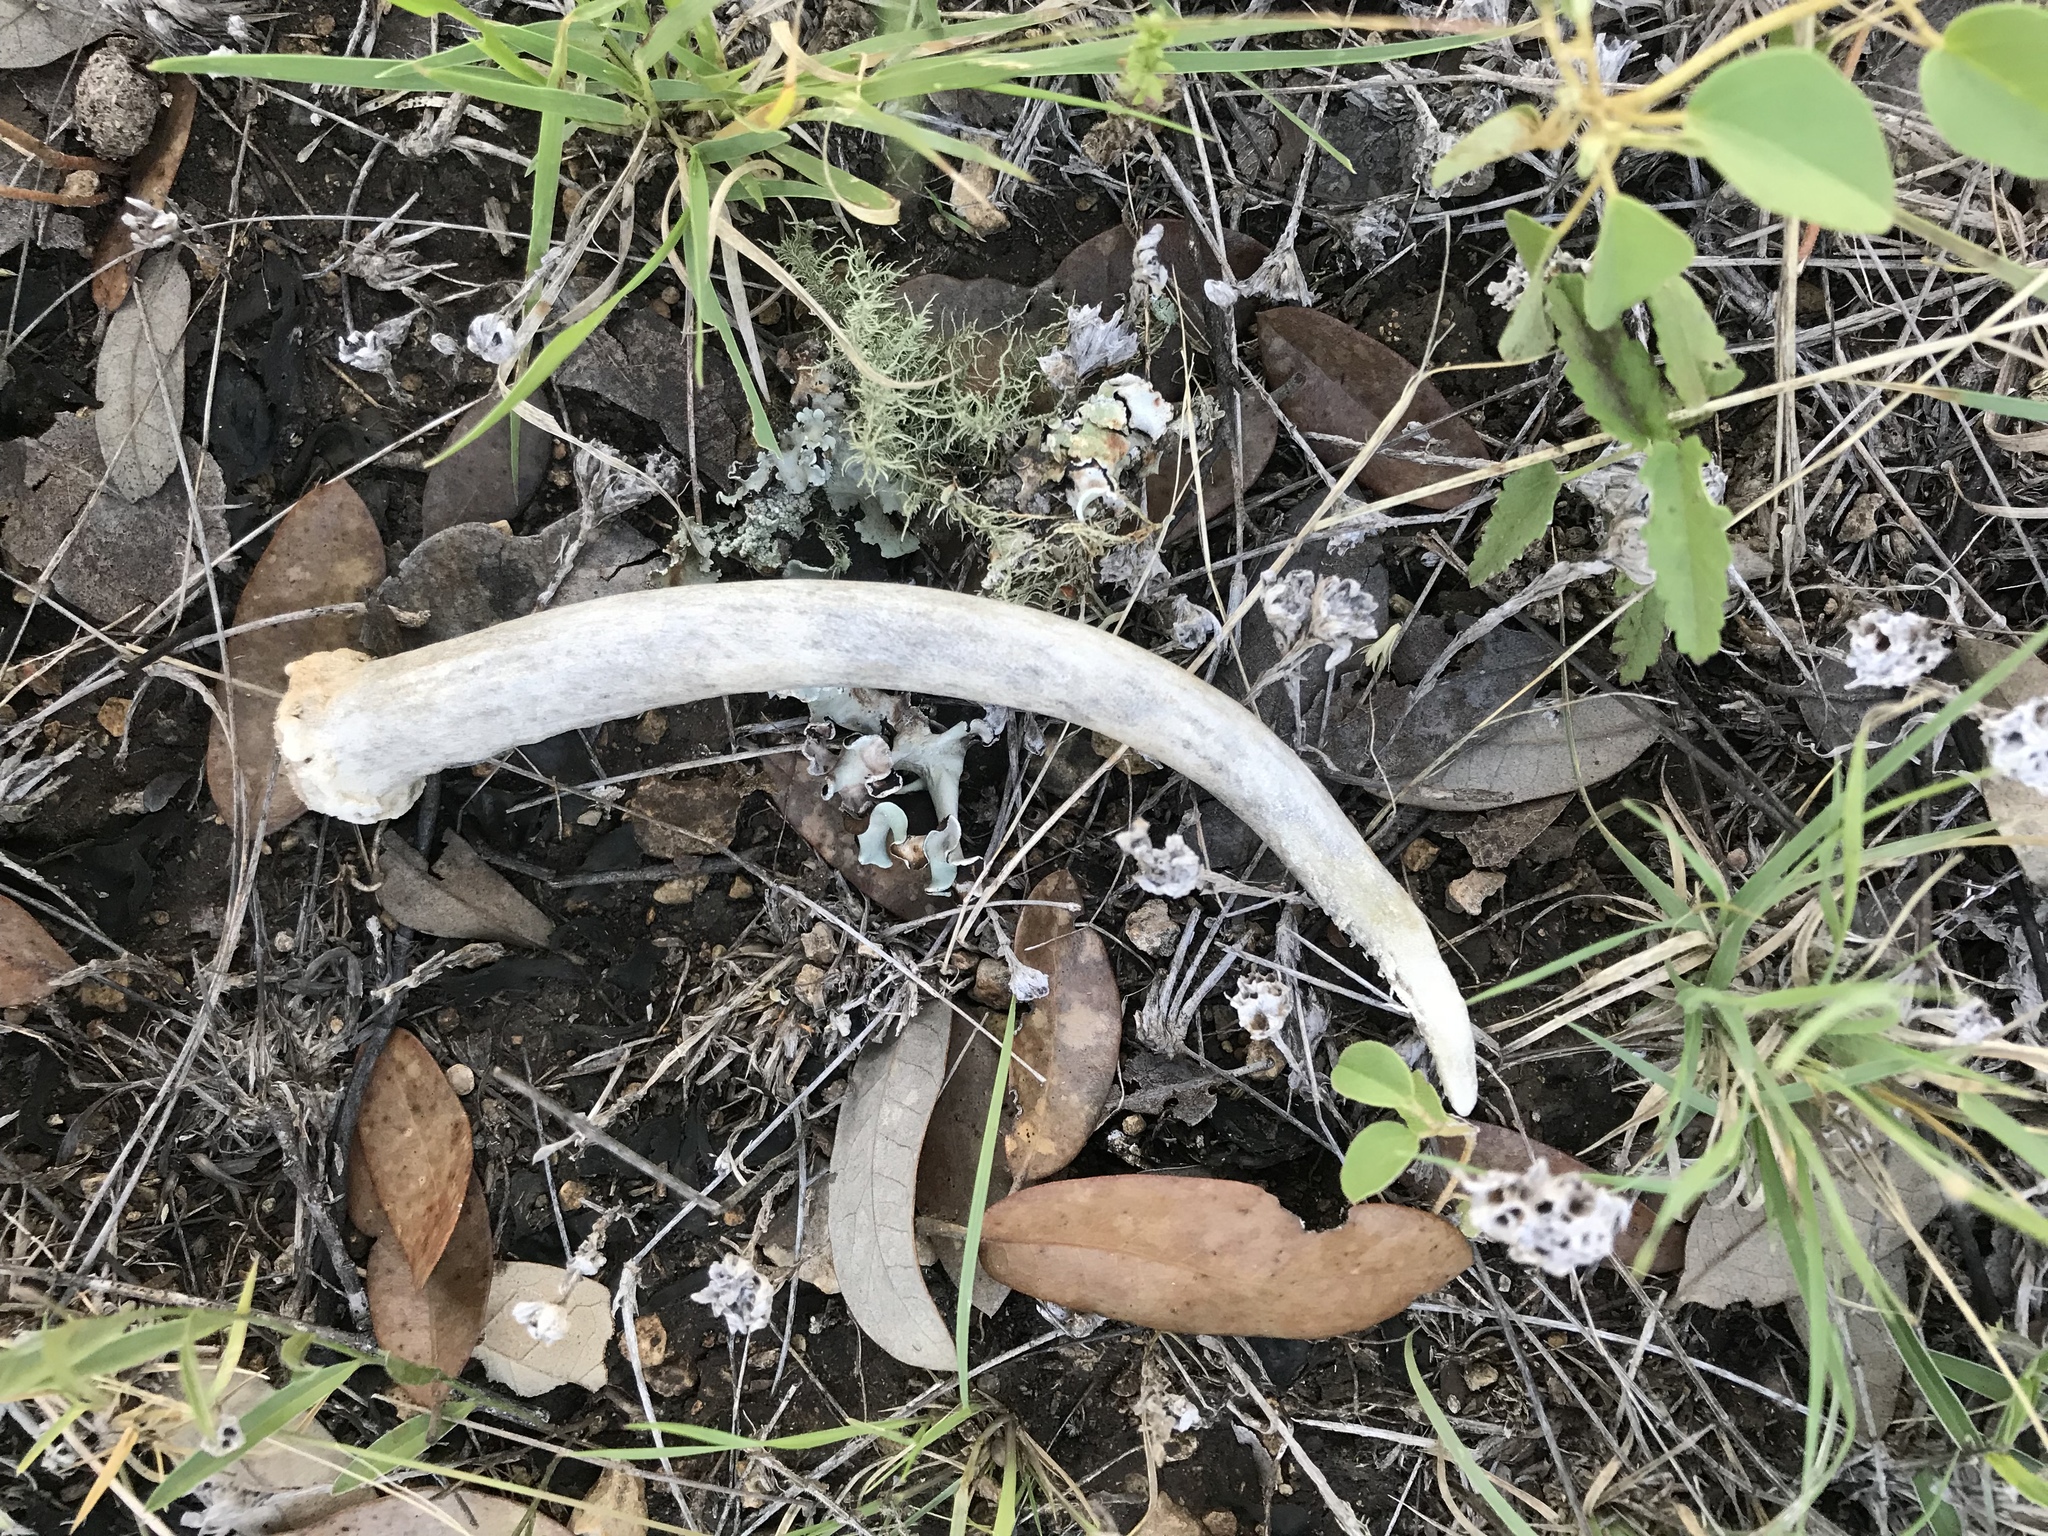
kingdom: Animalia
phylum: Chordata
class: Mammalia
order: Artiodactyla
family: Cervidae
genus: Odocoileus
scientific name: Odocoileus virginianus
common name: White-tailed deer
